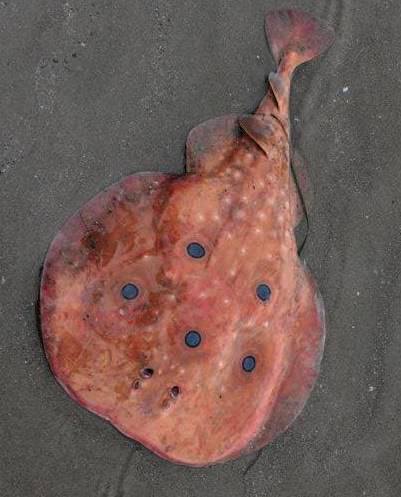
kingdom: Animalia
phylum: Chordata
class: Elasmobranchii
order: Torpediniformes
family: Torpedinidae
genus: Torpedo
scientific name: Torpedo torpedo
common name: Common torpedo
